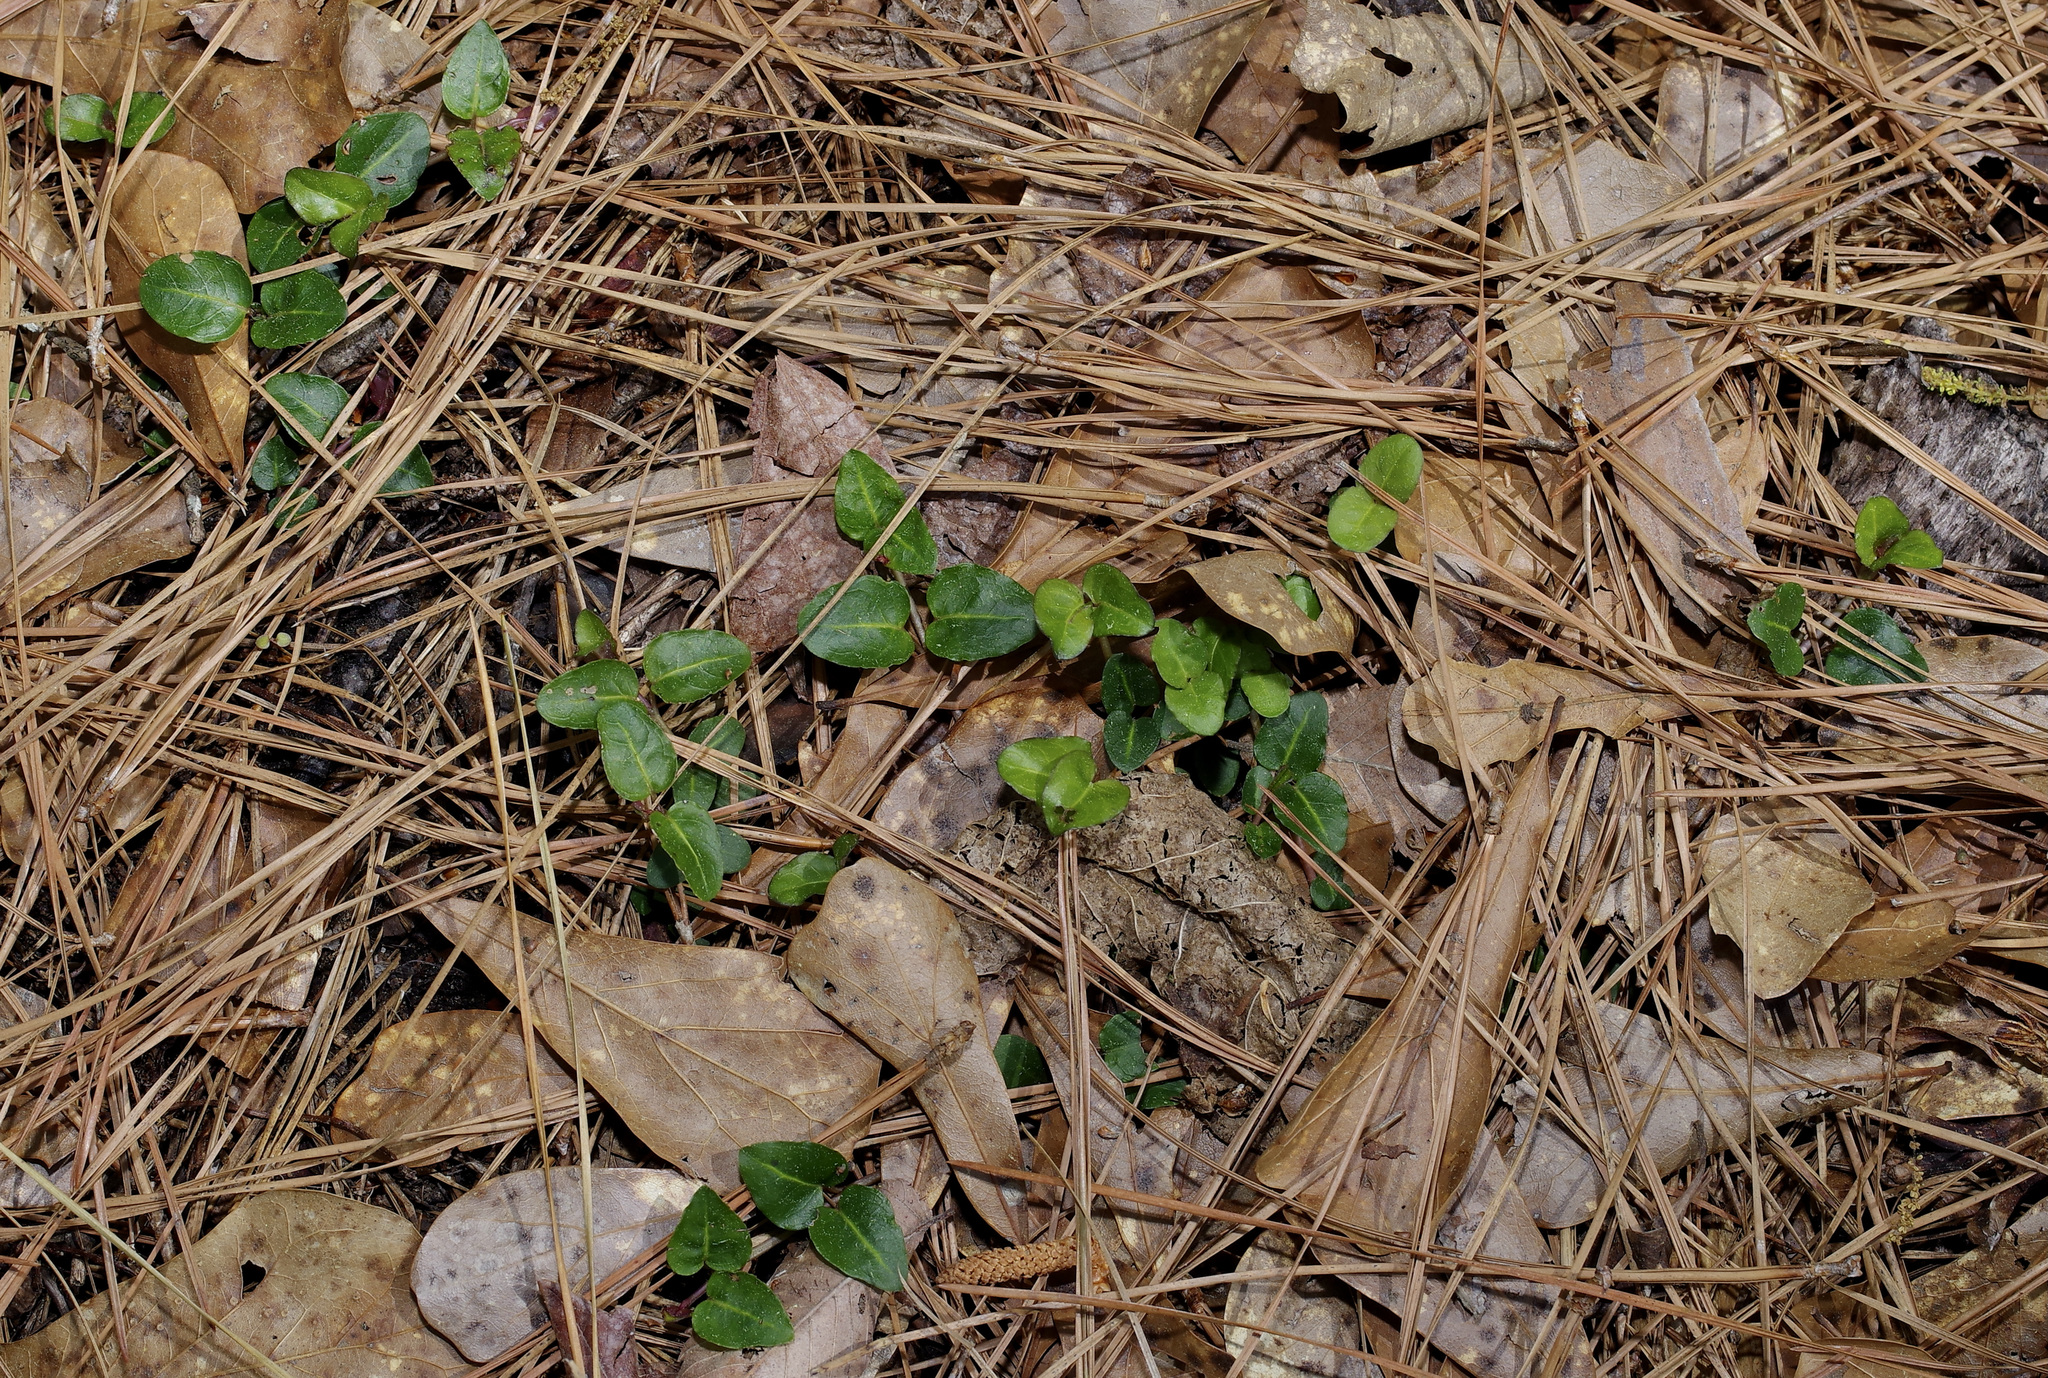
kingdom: Plantae
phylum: Tracheophyta
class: Magnoliopsida
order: Gentianales
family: Rubiaceae
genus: Mitchella
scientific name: Mitchella repens
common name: Partridge-berry
